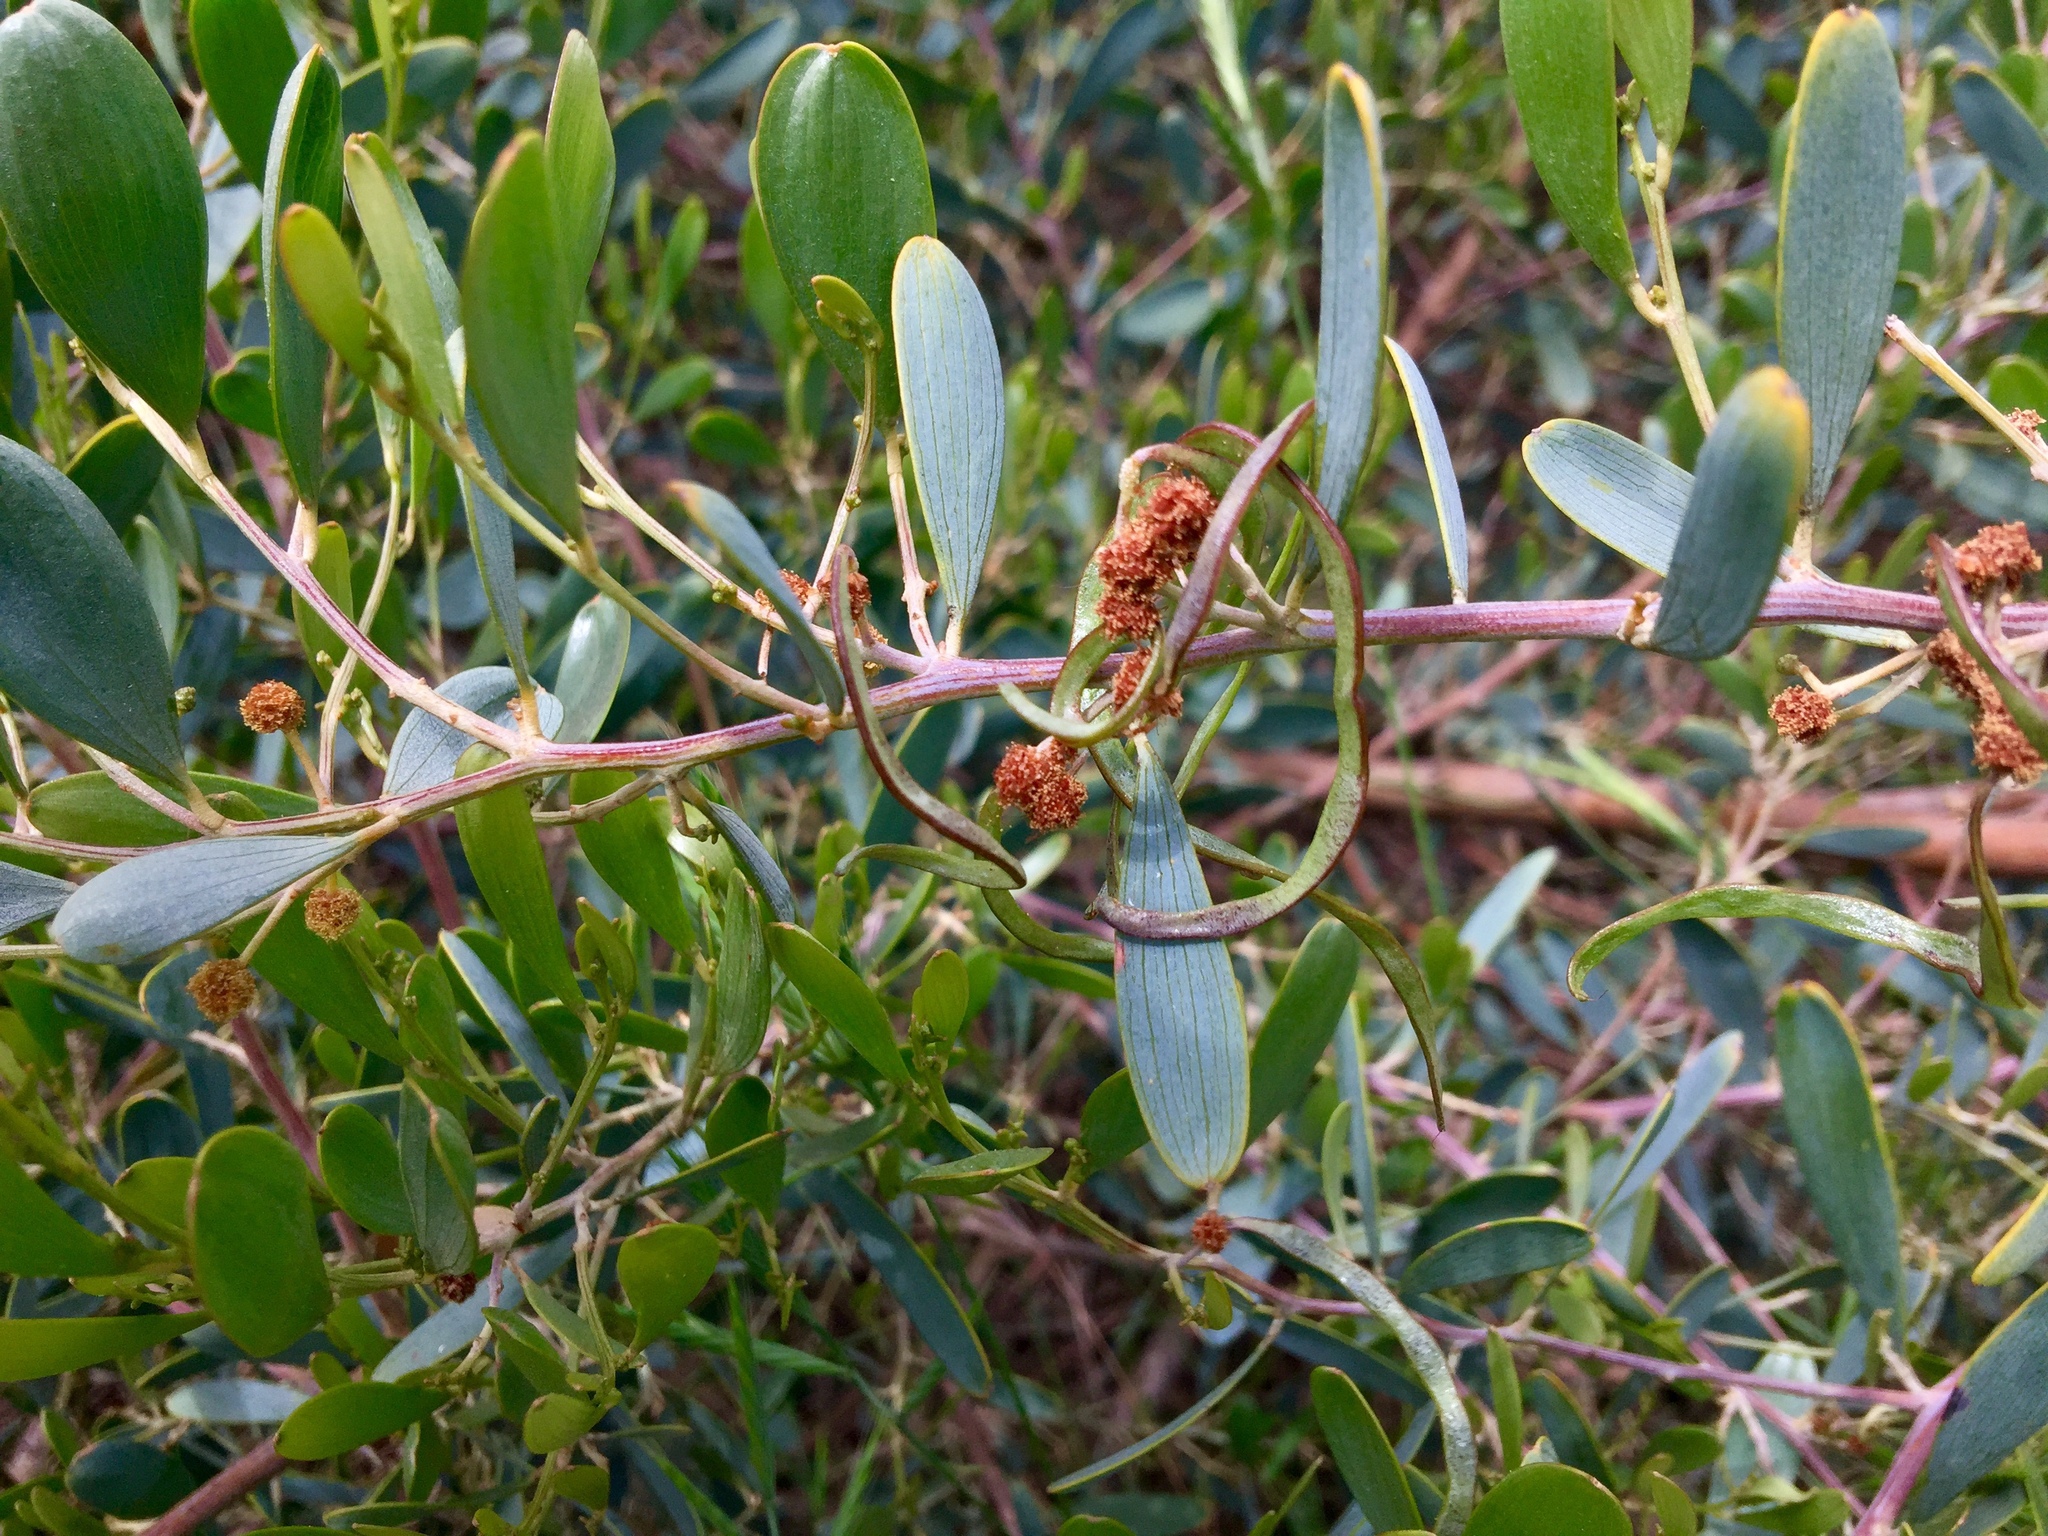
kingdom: Plantae
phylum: Tracheophyta
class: Magnoliopsida
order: Fabales
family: Fabaceae
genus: Acacia
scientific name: Acacia redolens
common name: Bank catclaw
